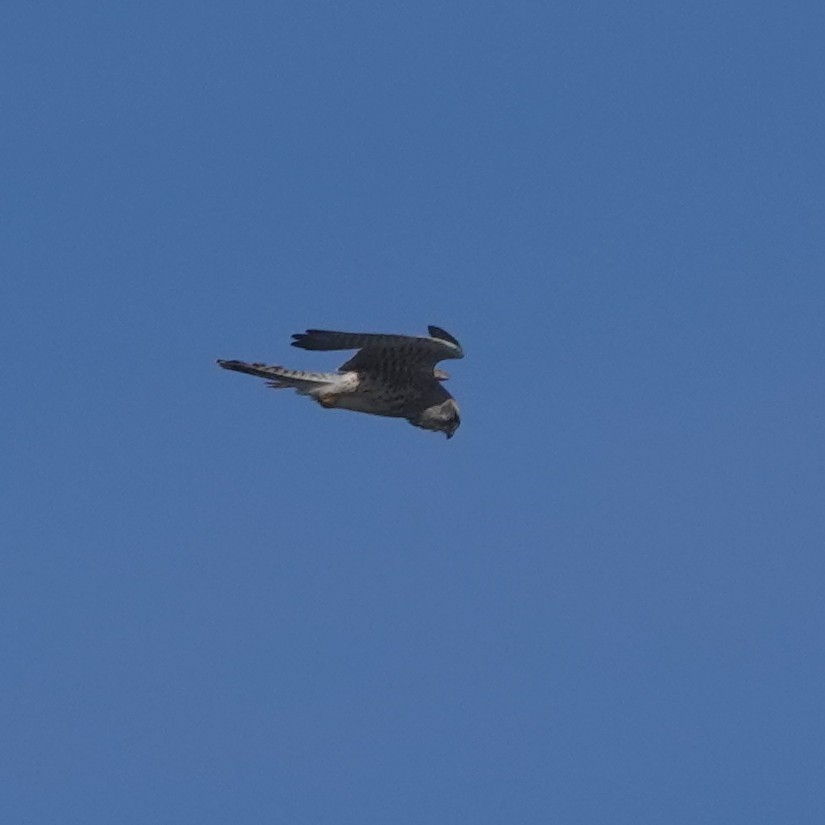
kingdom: Animalia
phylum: Chordata
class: Aves
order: Falconiformes
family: Falconidae
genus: Falco
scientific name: Falco tinnunculus
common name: Common kestrel
